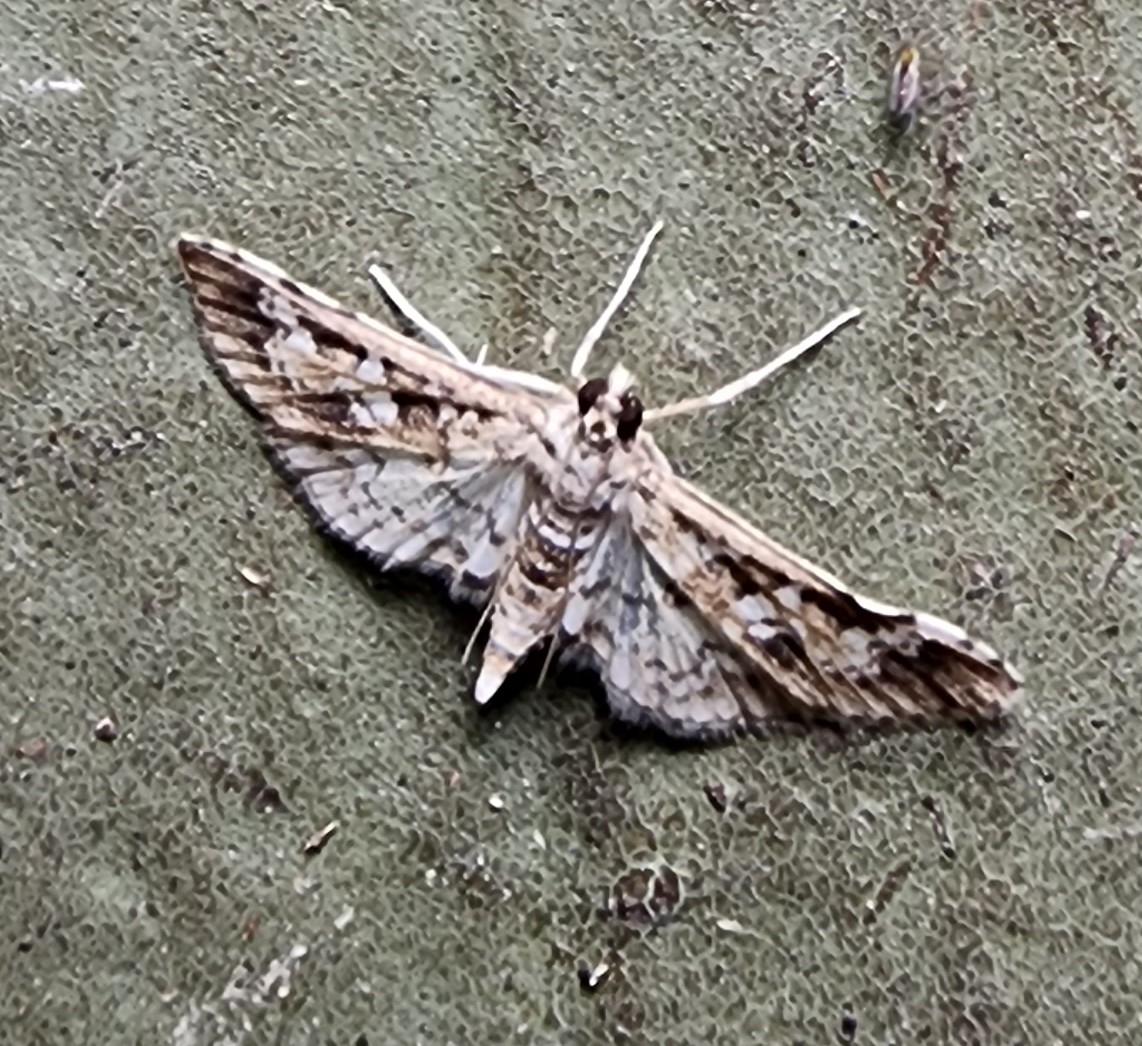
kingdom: Animalia
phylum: Arthropoda
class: Insecta
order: Lepidoptera
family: Crambidae
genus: Samea
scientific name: Samea multiplicalis
